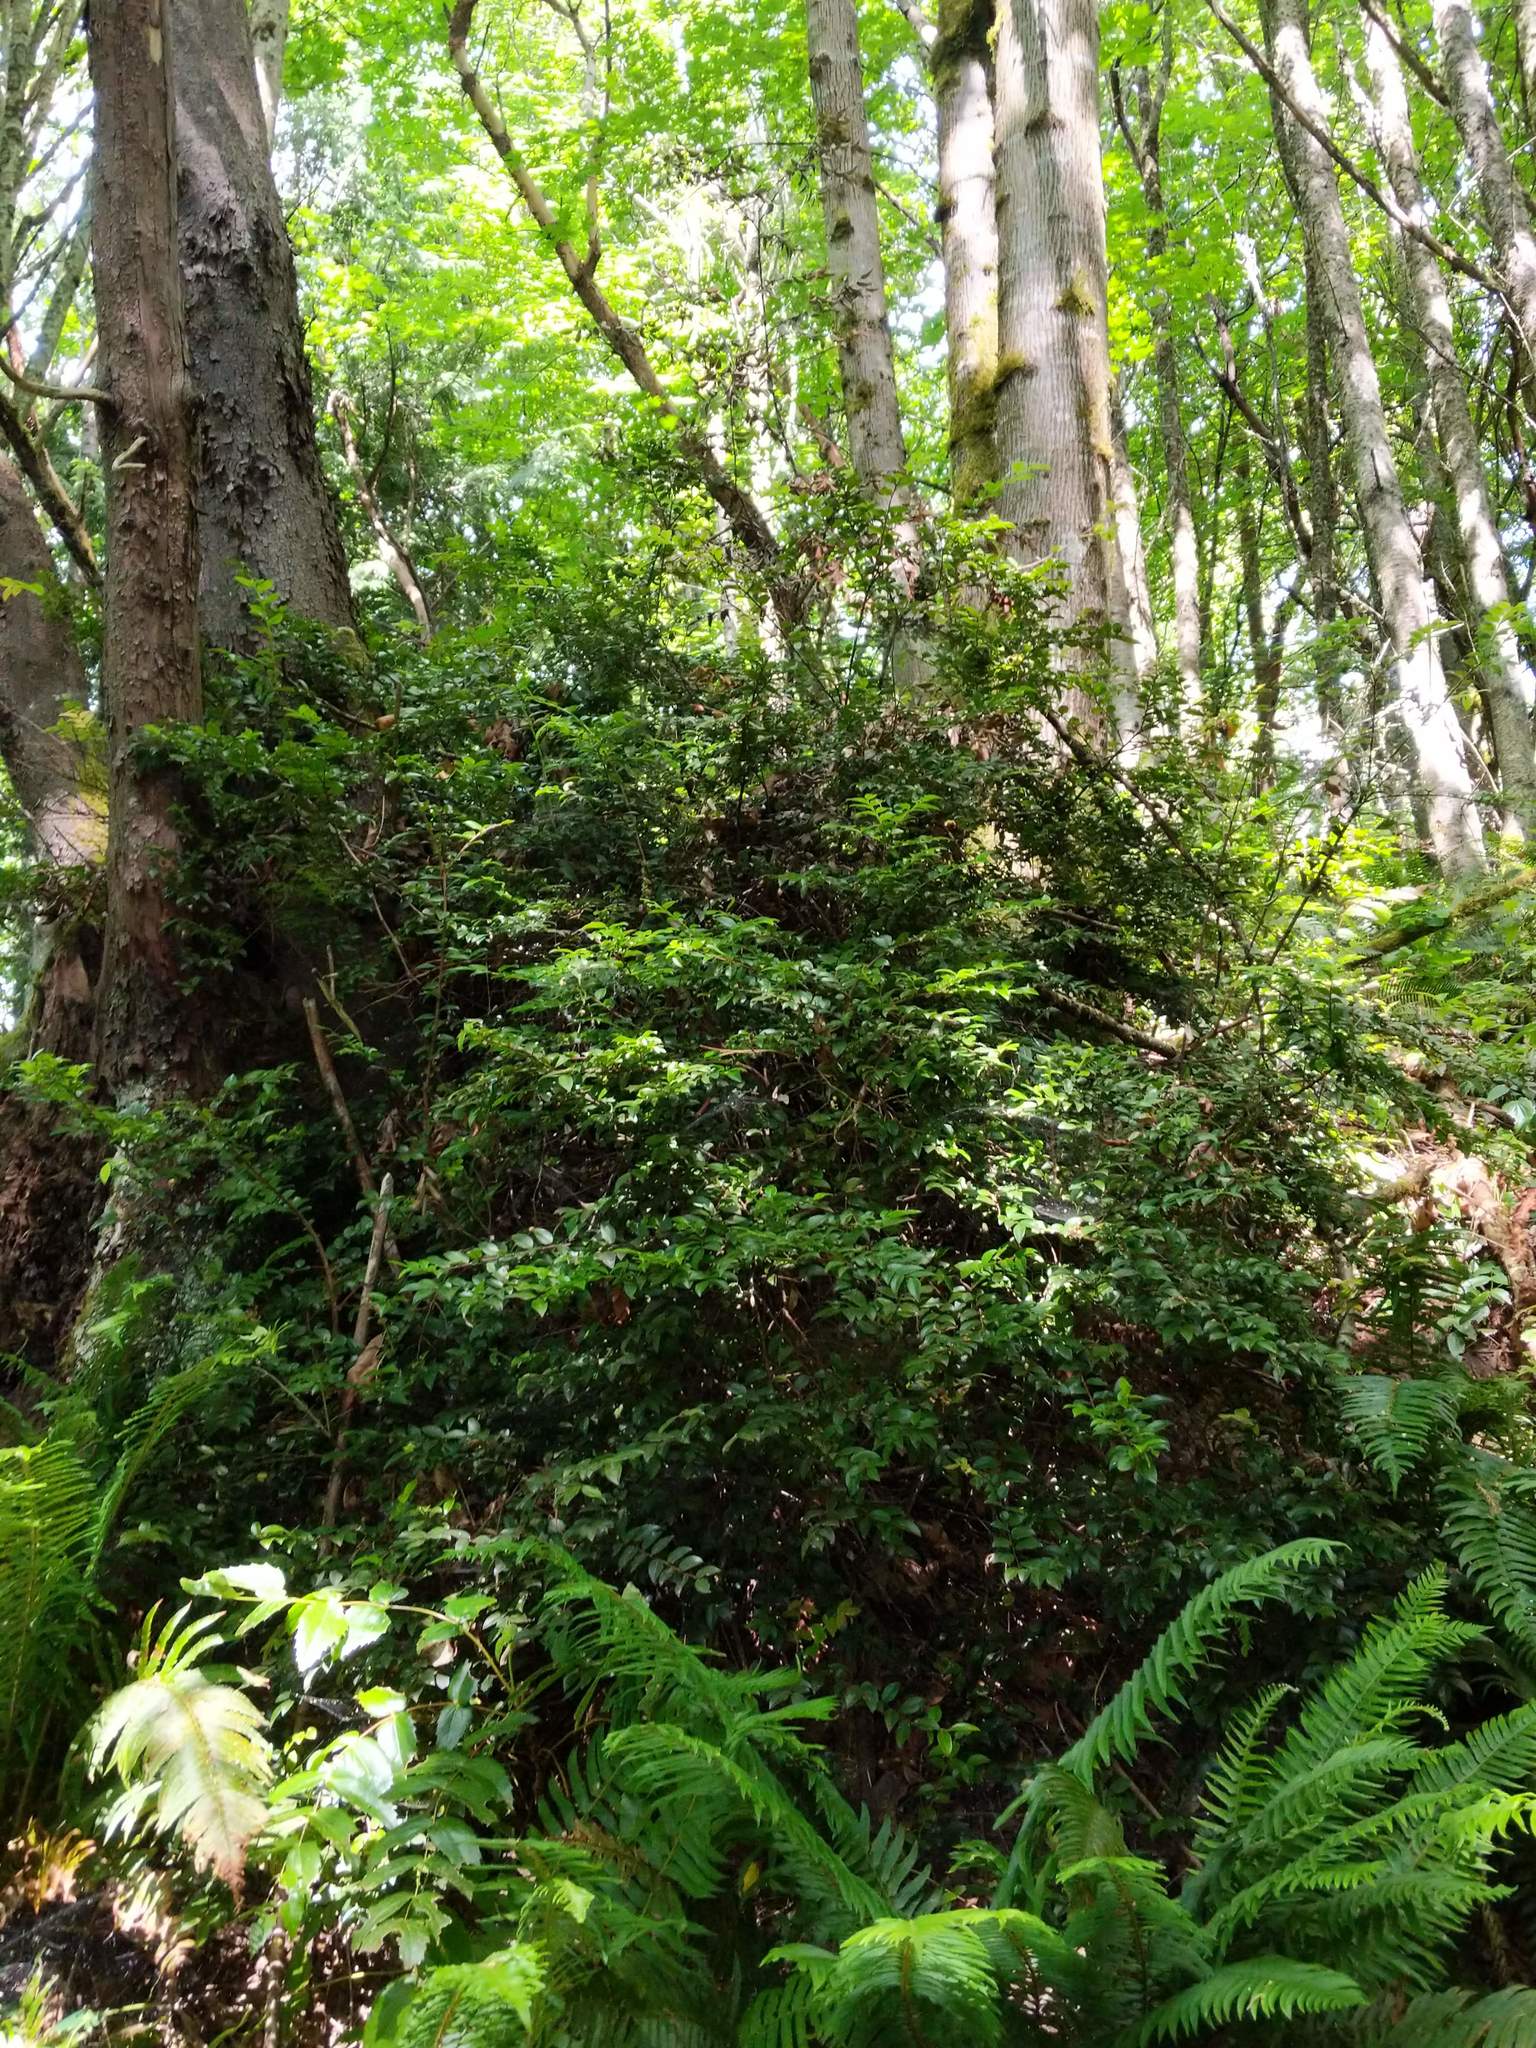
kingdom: Plantae
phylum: Tracheophyta
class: Magnoliopsida
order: Ericales
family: Ericaceae
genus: Vaccinium
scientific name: Vaccinium ovatum
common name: California-huckleberry
